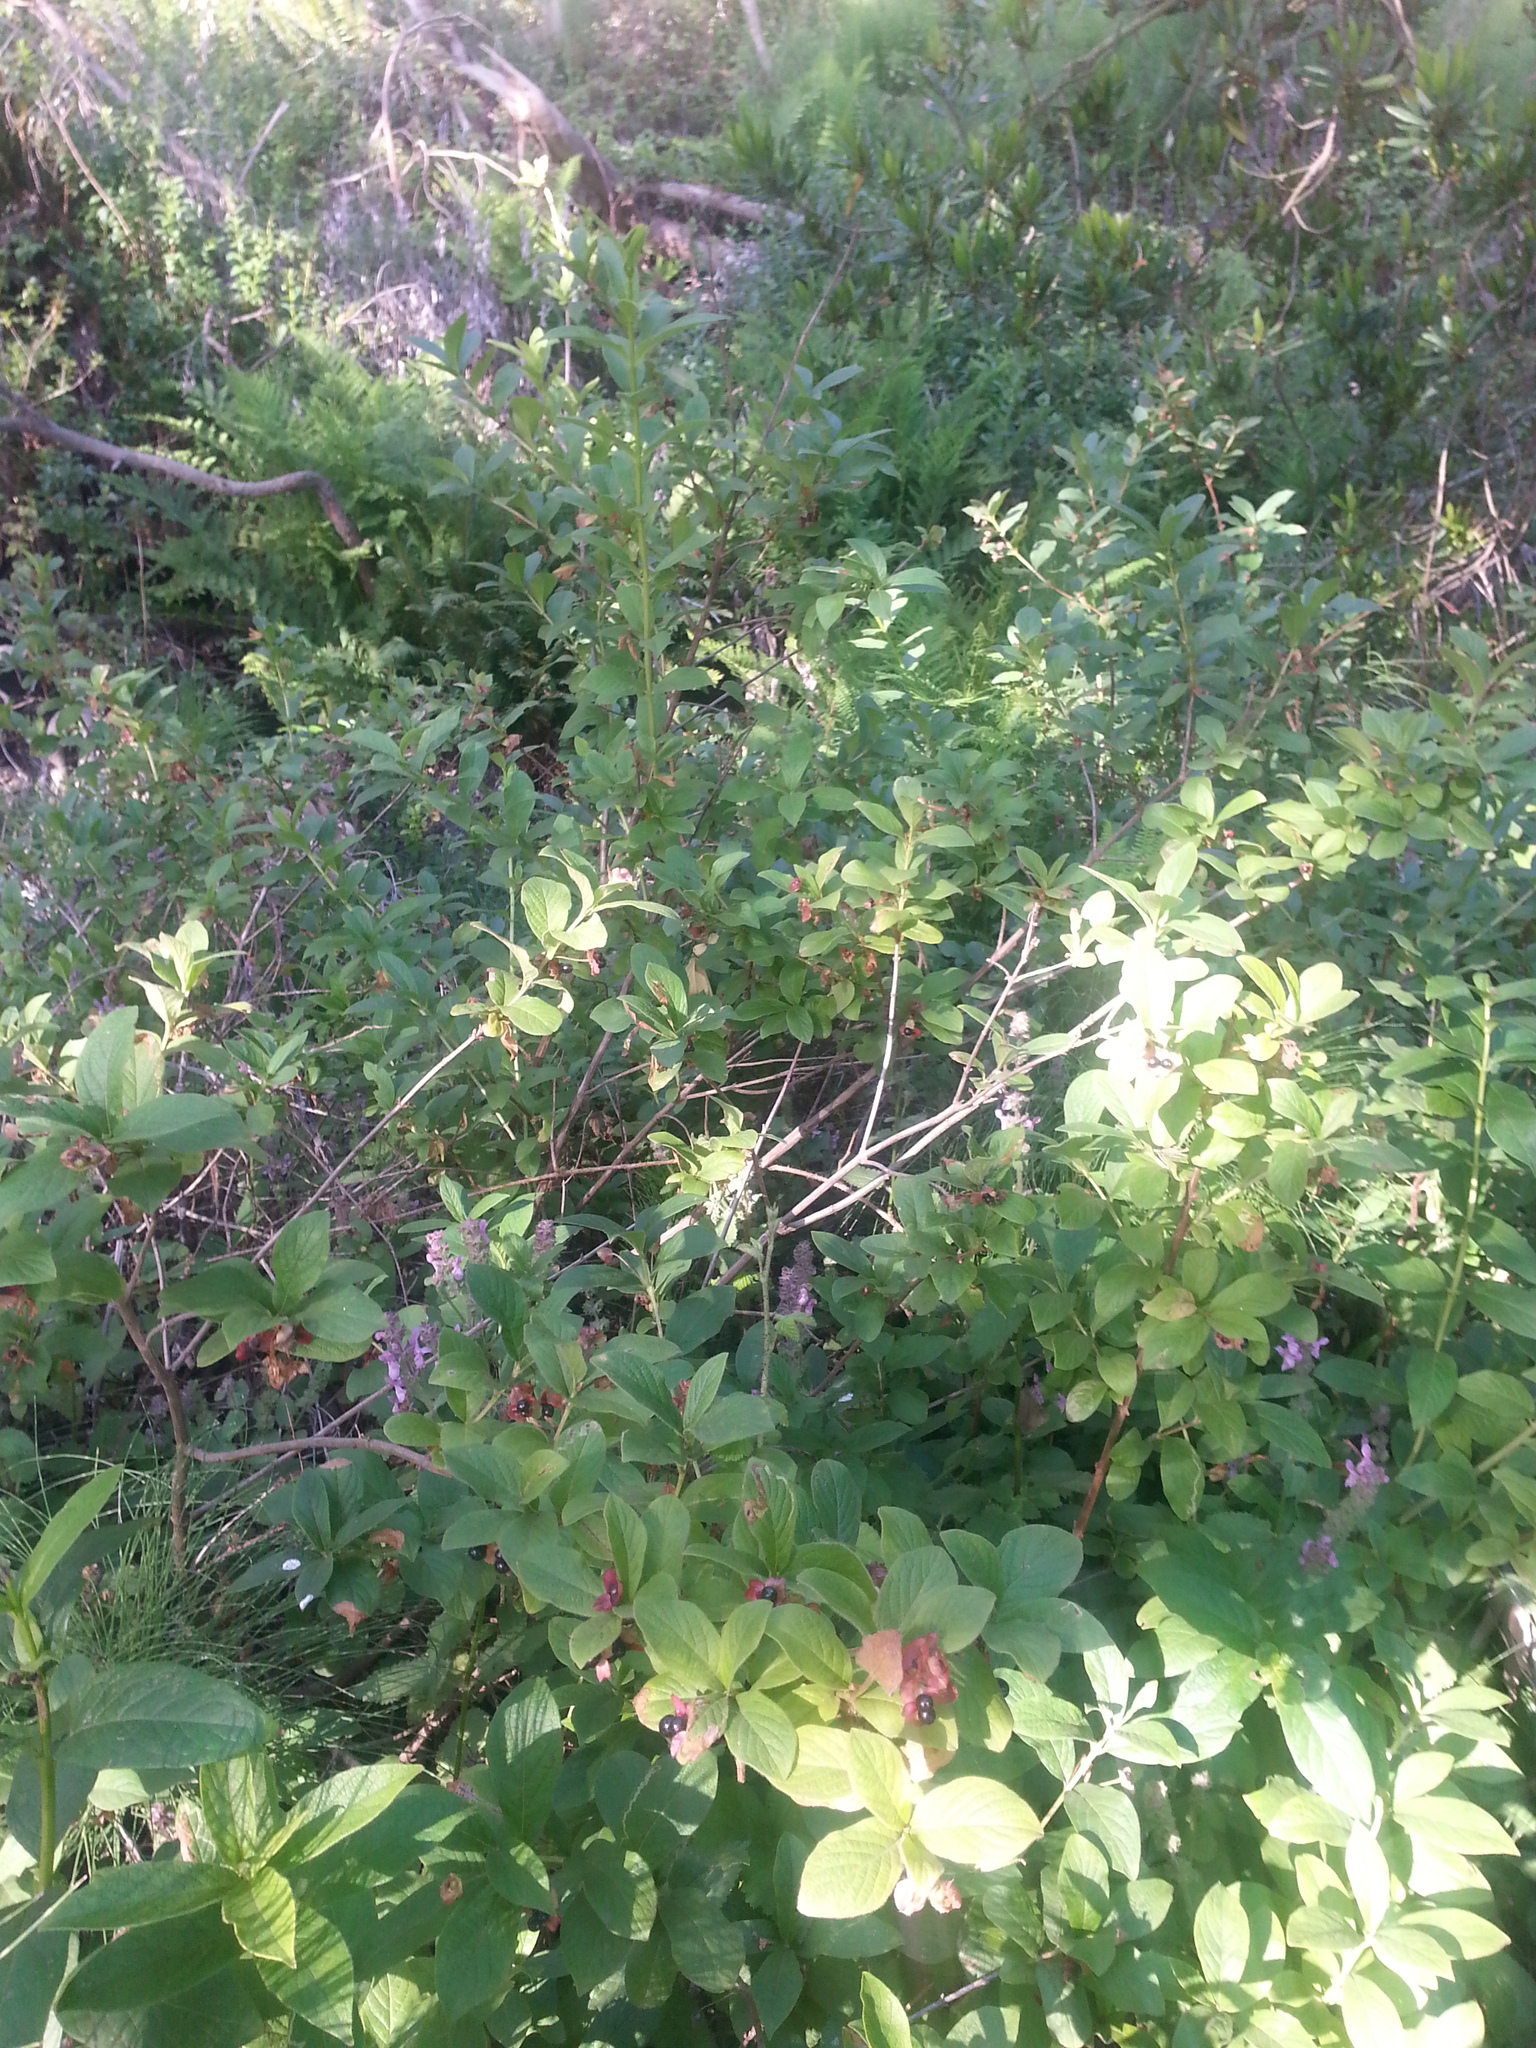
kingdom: Plantae
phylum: Tracheophyta
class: Magnoliopsida
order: Dipsacales
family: Caprifoliaceae
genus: Lonicera
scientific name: Lonicera involucrata
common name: Californian honeysuckle
